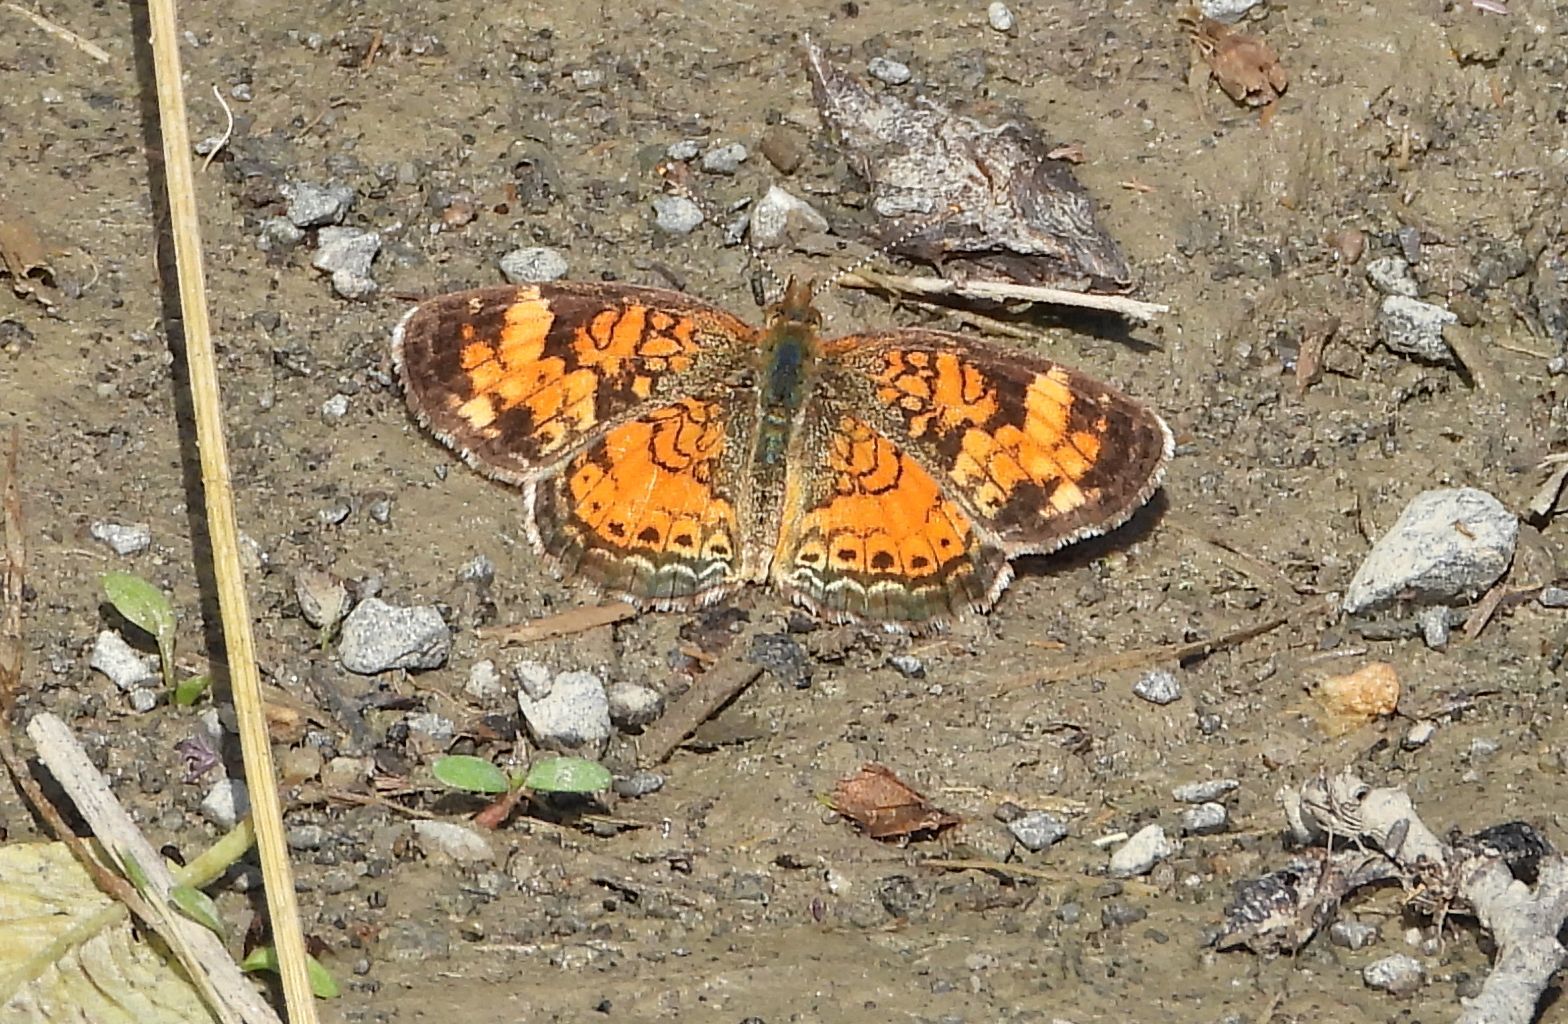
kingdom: Animalia
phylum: Arthropoda
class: Insecta
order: Lepidoptera
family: Nymphalidae
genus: Phyciodes
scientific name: Phyciodes tharos
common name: Pearl crescent
